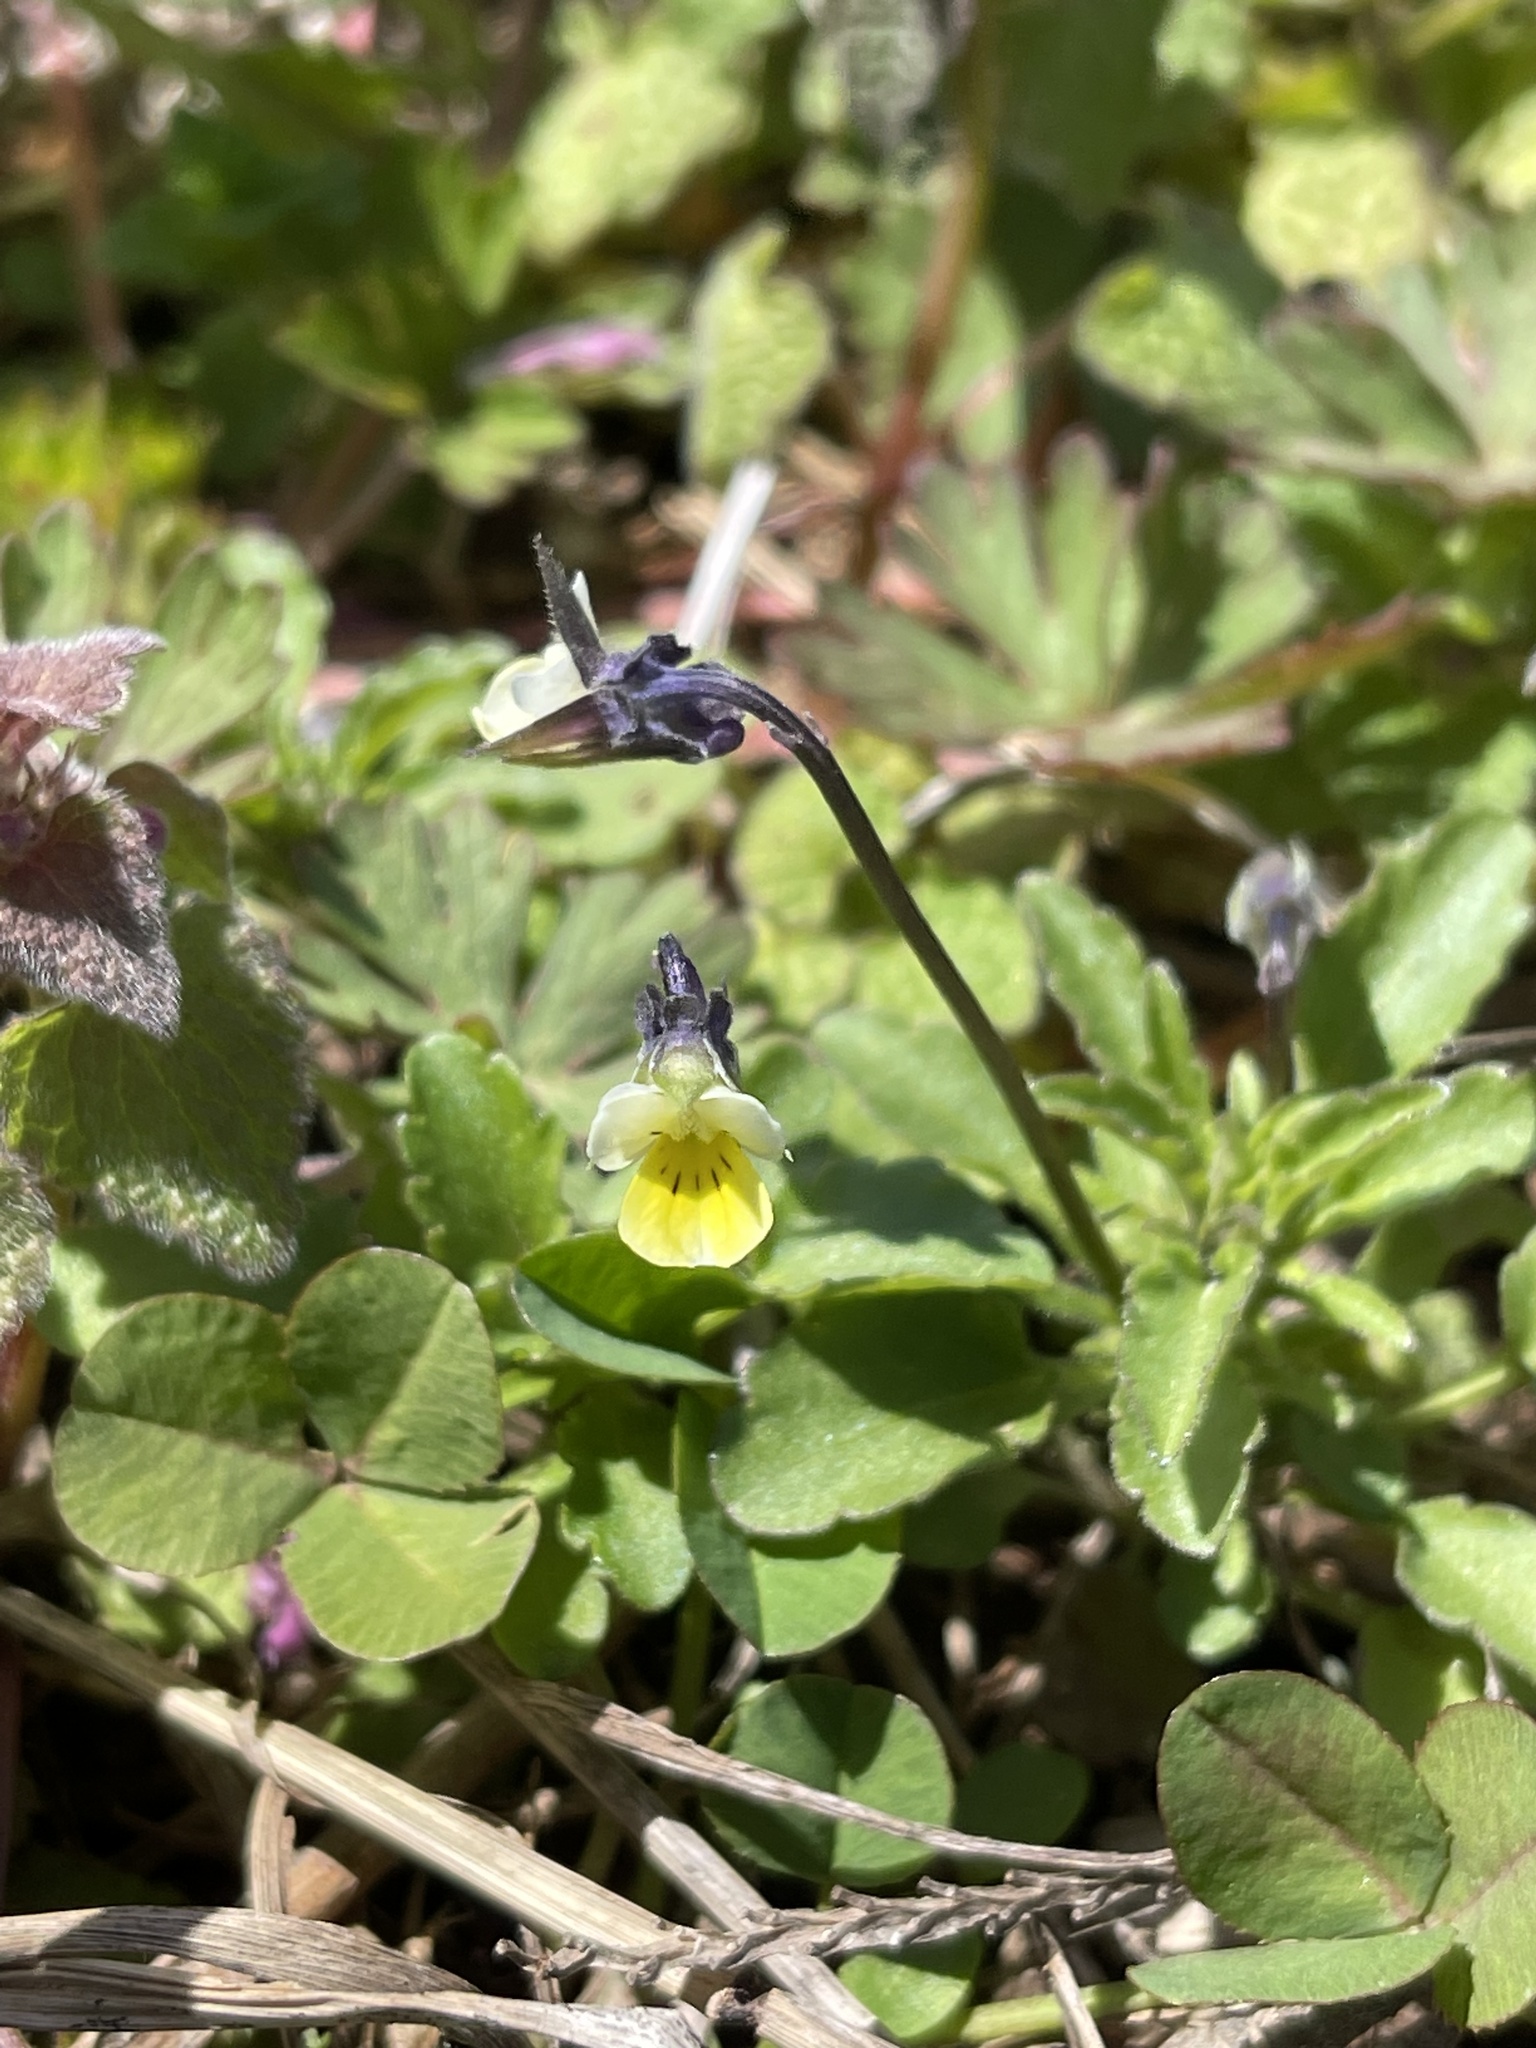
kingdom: Plantae
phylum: Tracheophyta
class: Magnoliopsida
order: Malpighiales
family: Violaceae
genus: Viola
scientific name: Viola arvensis
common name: Field pansy
